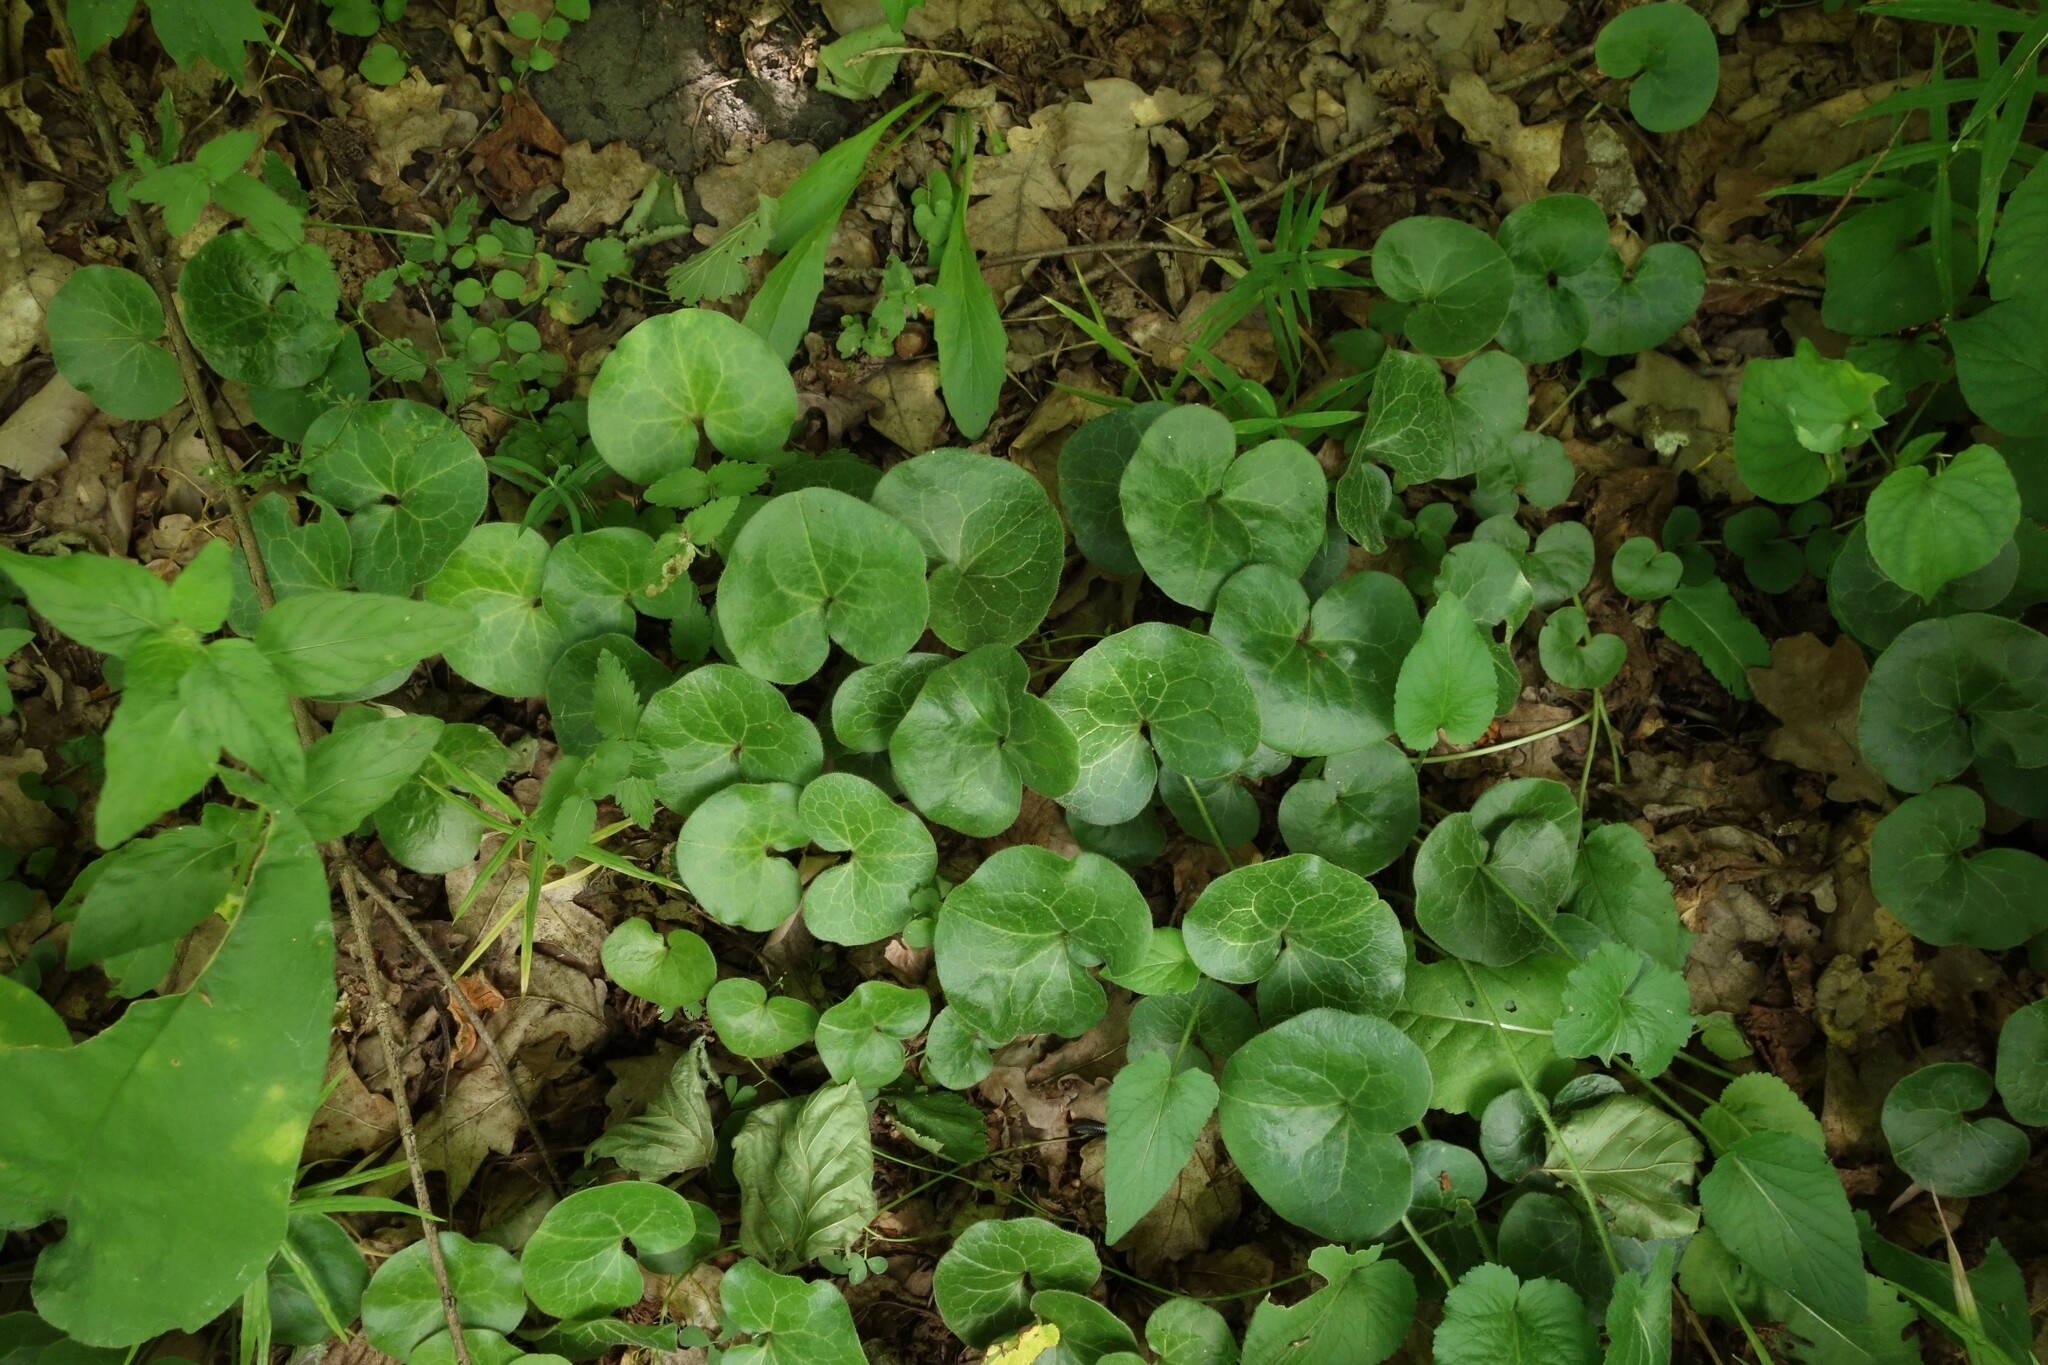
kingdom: Plantae
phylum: Tracheophyta
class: Magnoliopsida
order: Piperales
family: Aristolochiaceae
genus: Asarum
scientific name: Asarum europaeum
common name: Asarabacca
